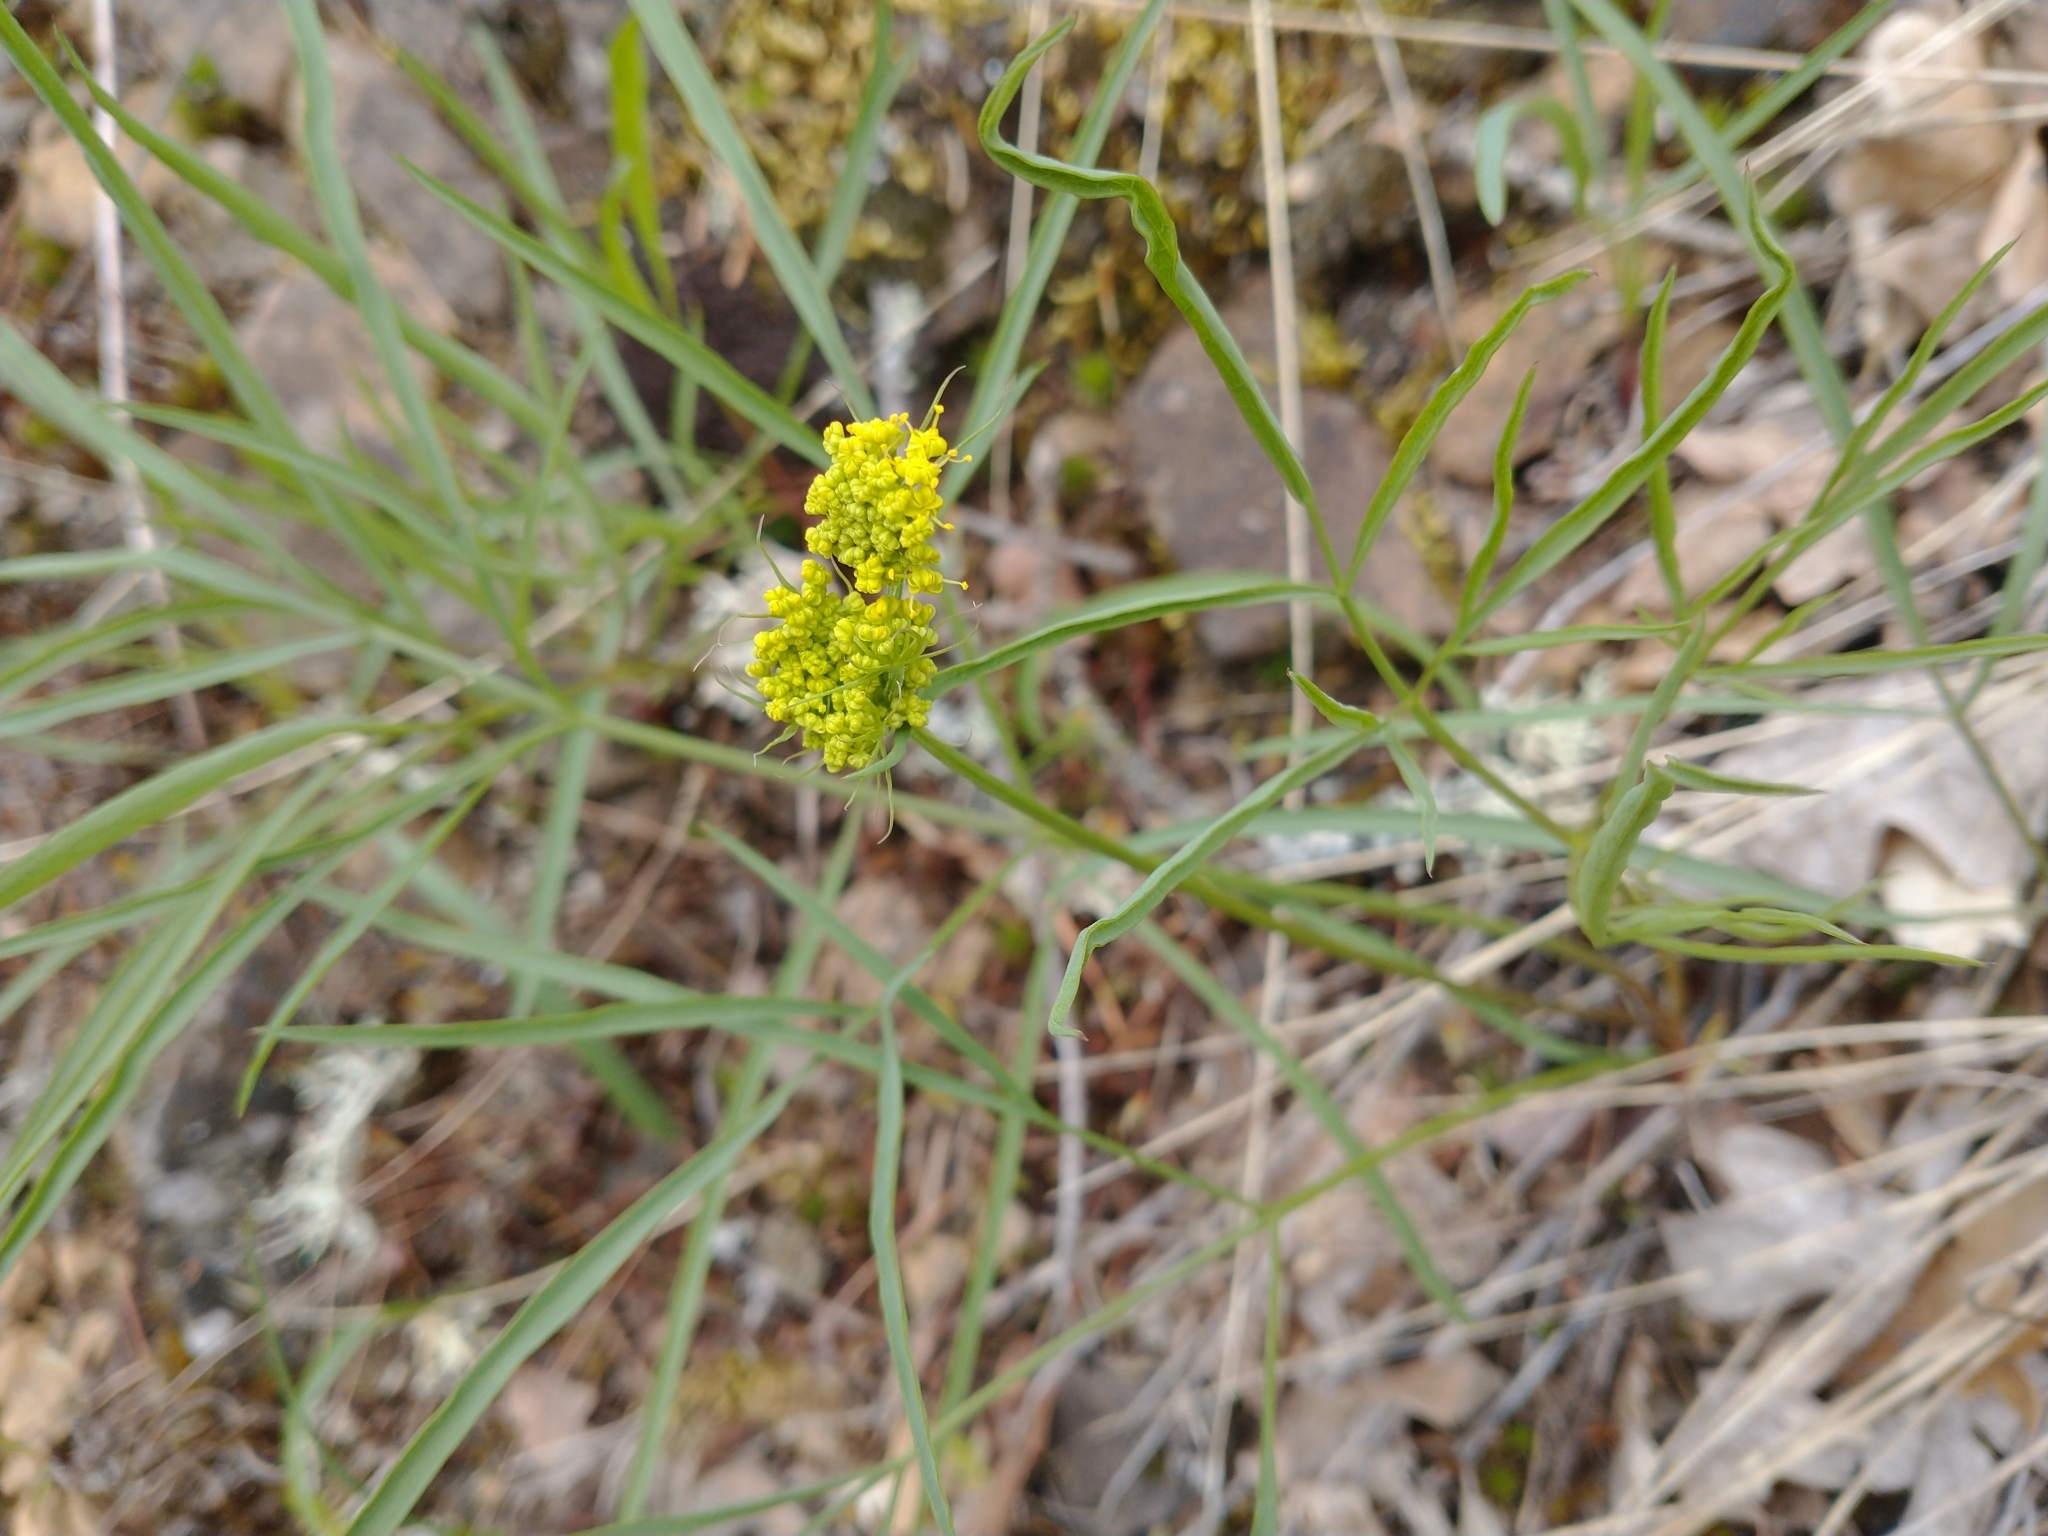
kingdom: Plantae
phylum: Tracheophyta
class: Magnoliopsida
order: Apiales
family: Apiaceae
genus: Lomatium
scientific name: Lomatium triternatum
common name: Ternate lomatium
